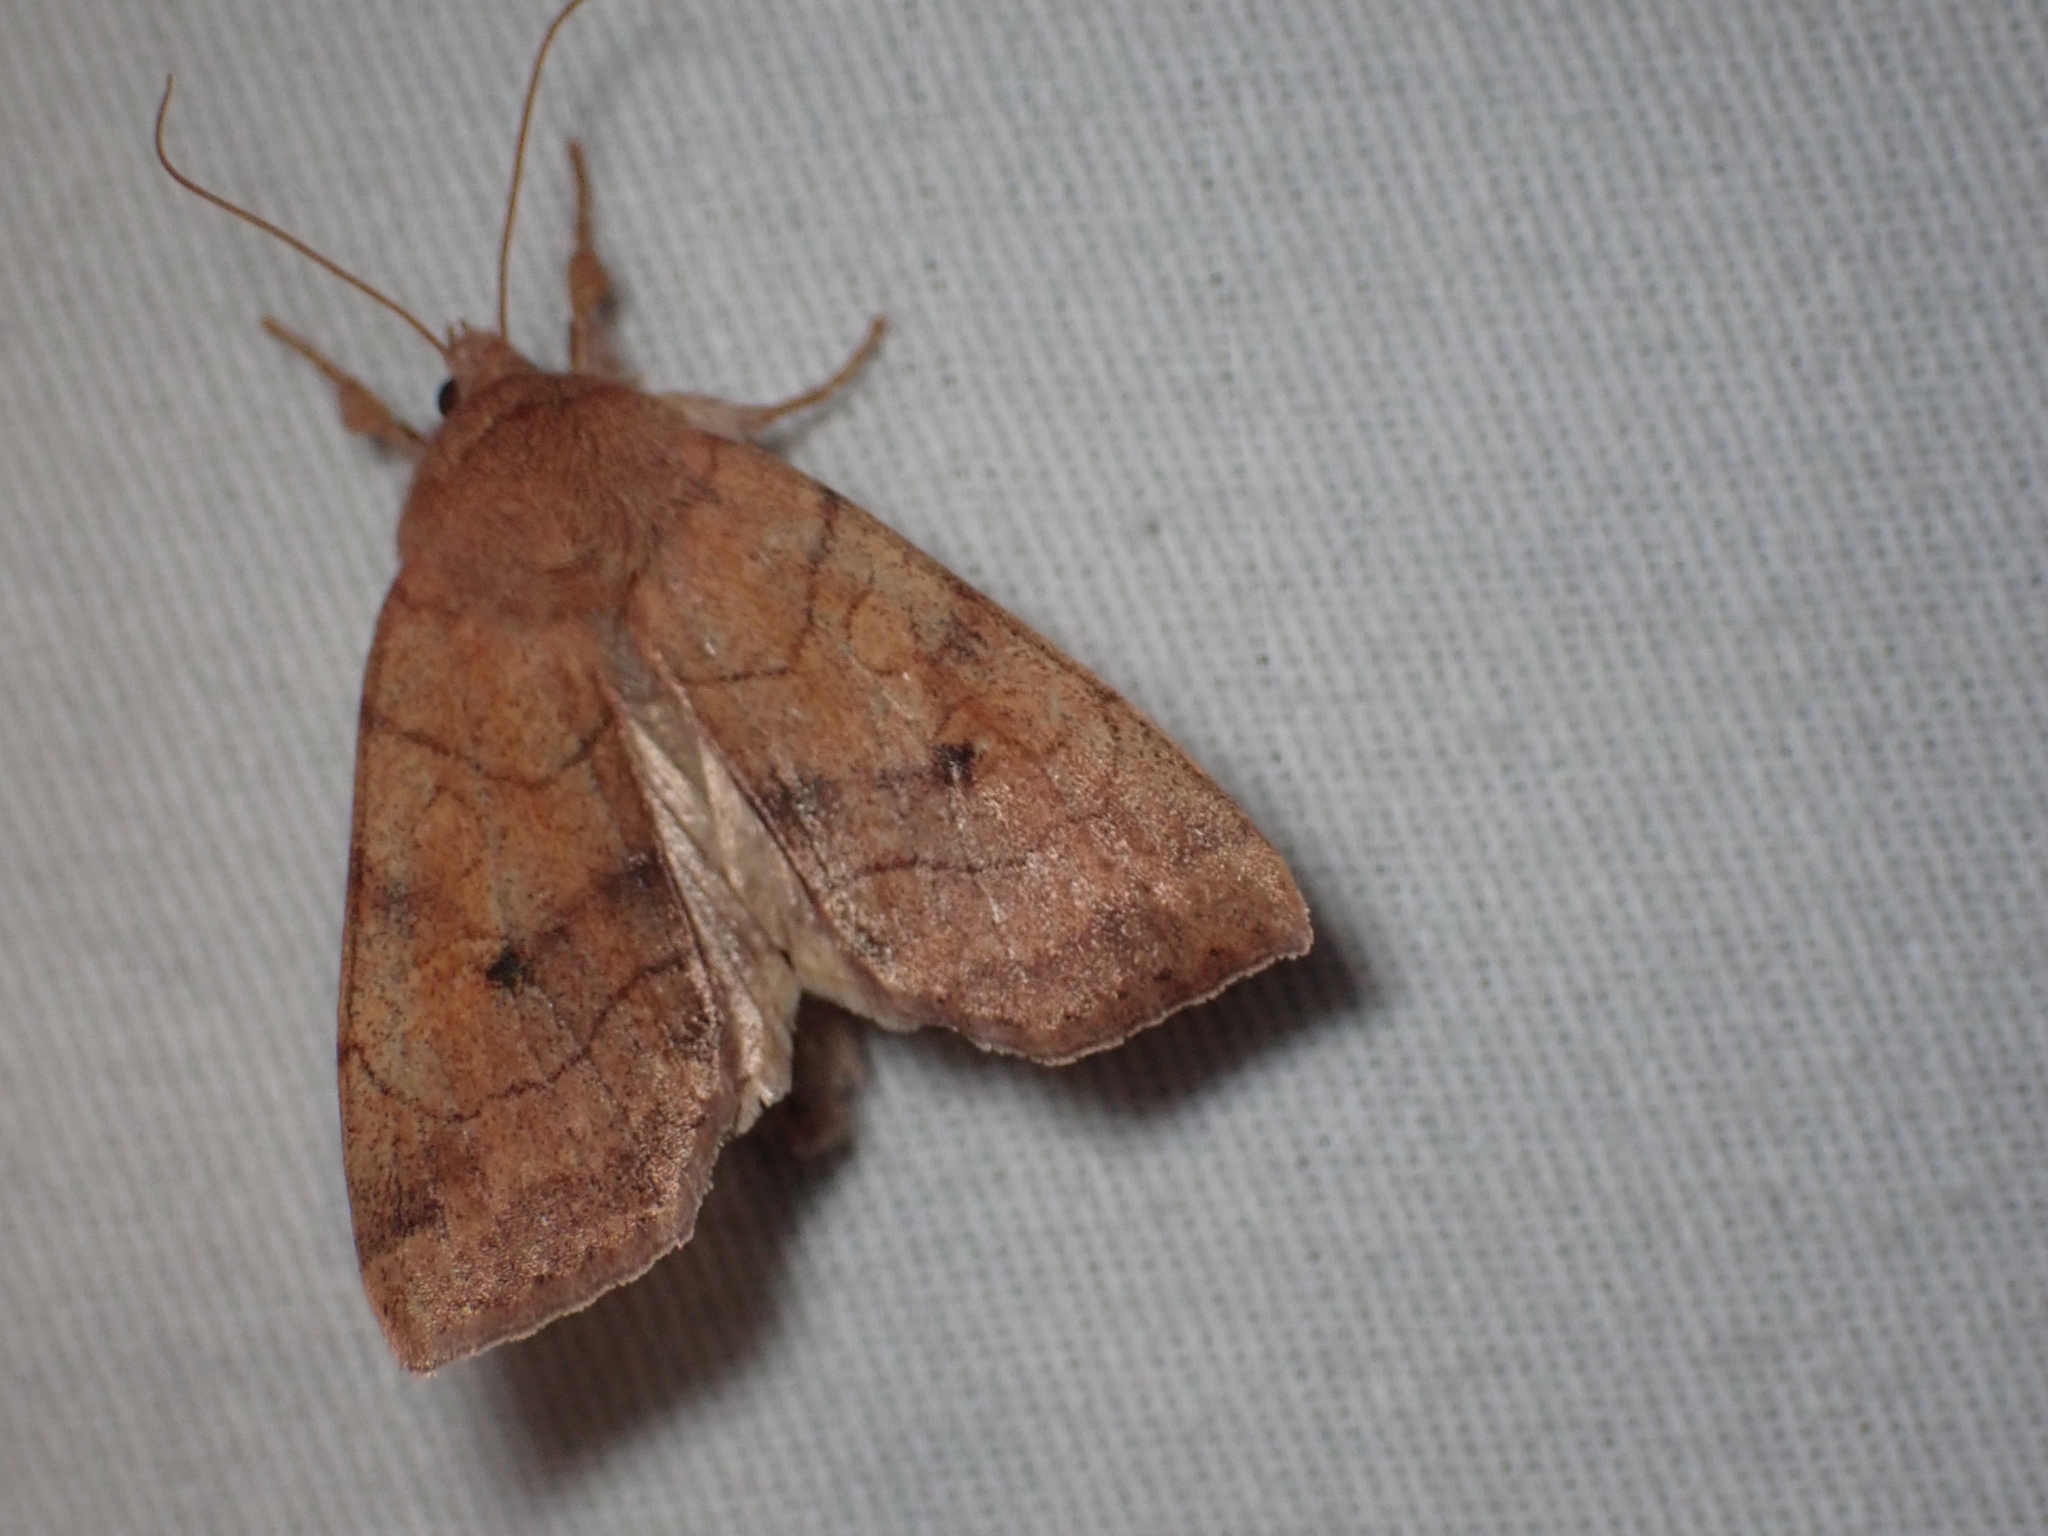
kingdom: Animalia
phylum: Arthropoda
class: Insecta
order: Lepidoptera
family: Noctuidae
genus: Enargia
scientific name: Enargia infumata
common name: Smoked sallow
